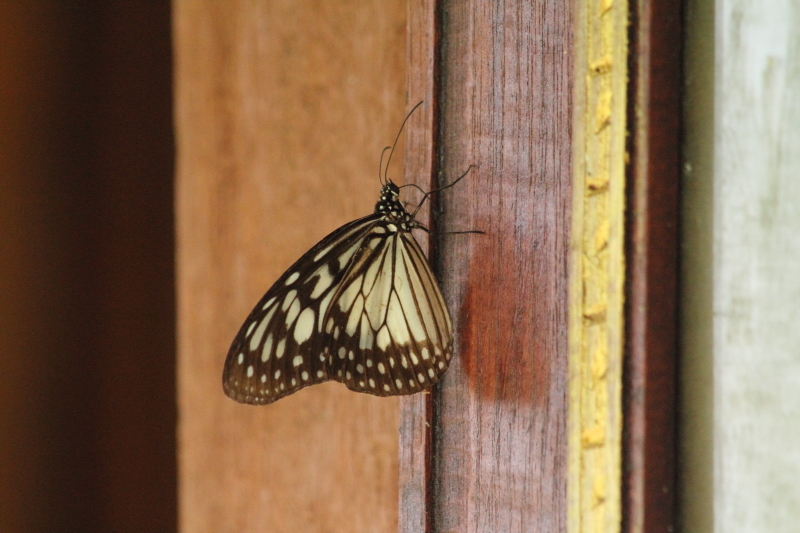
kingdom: Animalia
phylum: Arthropoda
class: Insecta
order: Lepidoptera
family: Nymphalidae
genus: Ideopsis
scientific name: Ideopsis juventa
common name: Grey glassy tiger
